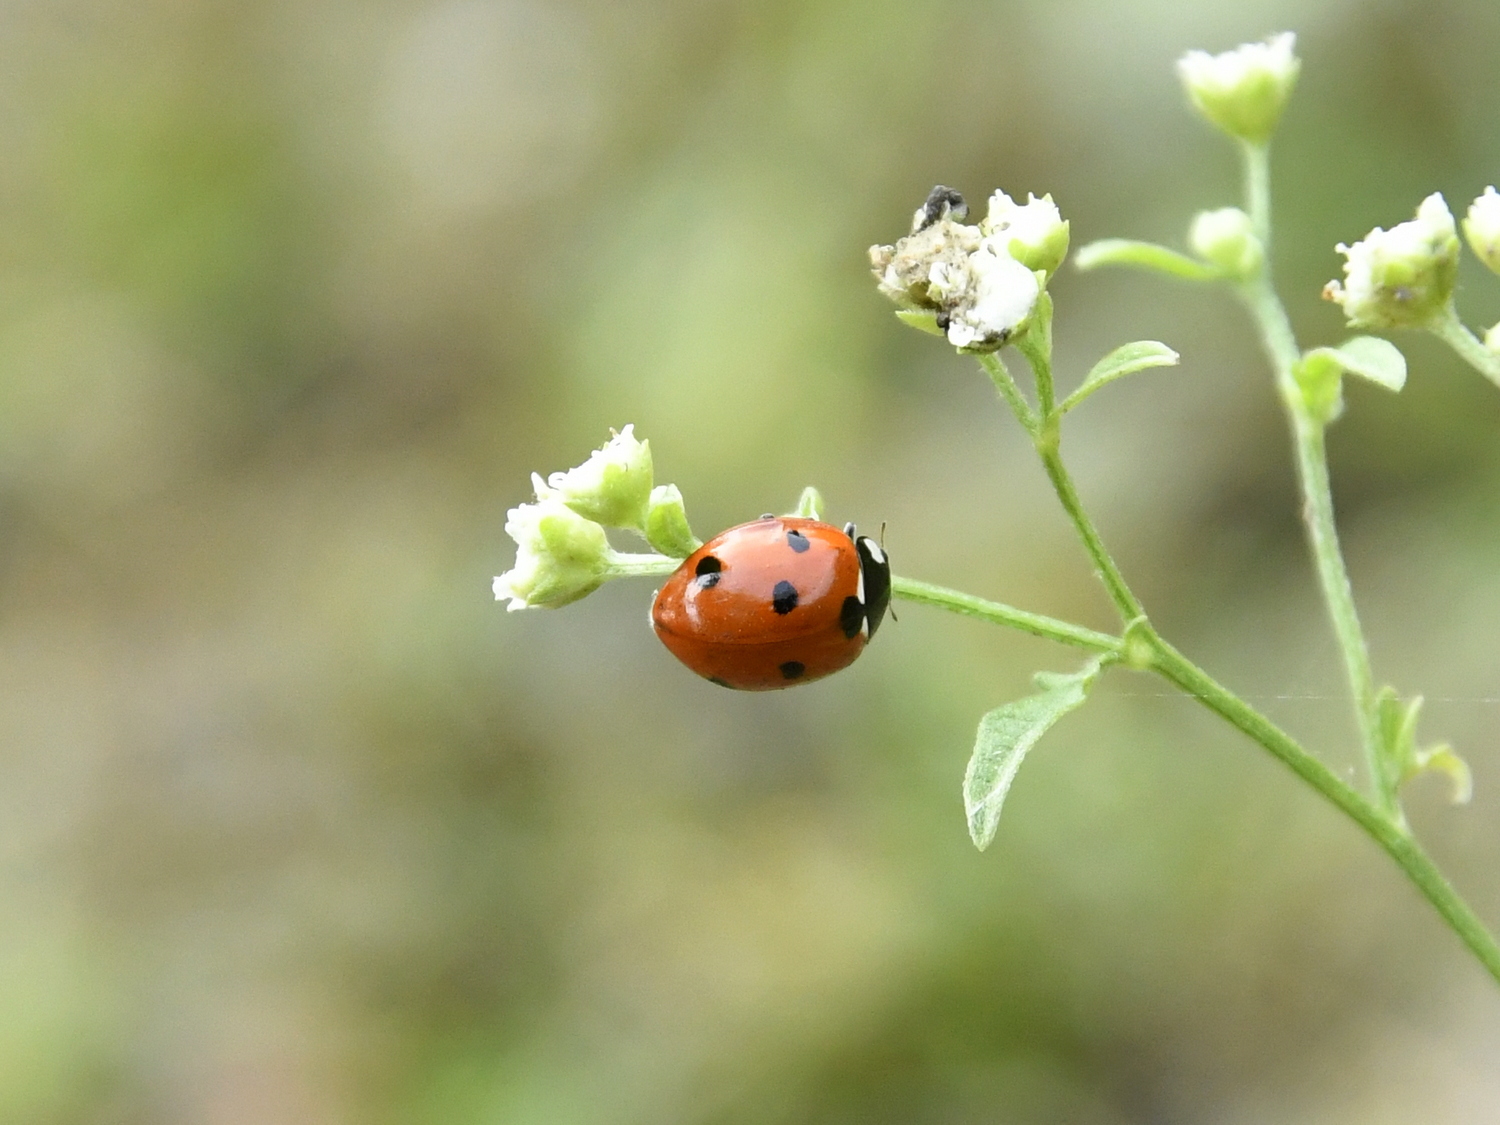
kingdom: Animalia
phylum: Arthropoda
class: Insecta
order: Coleoptera
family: Coccinellidae
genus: Coccinella
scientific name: Coccinella septempunctata
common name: Sevenspotted lady beetle
